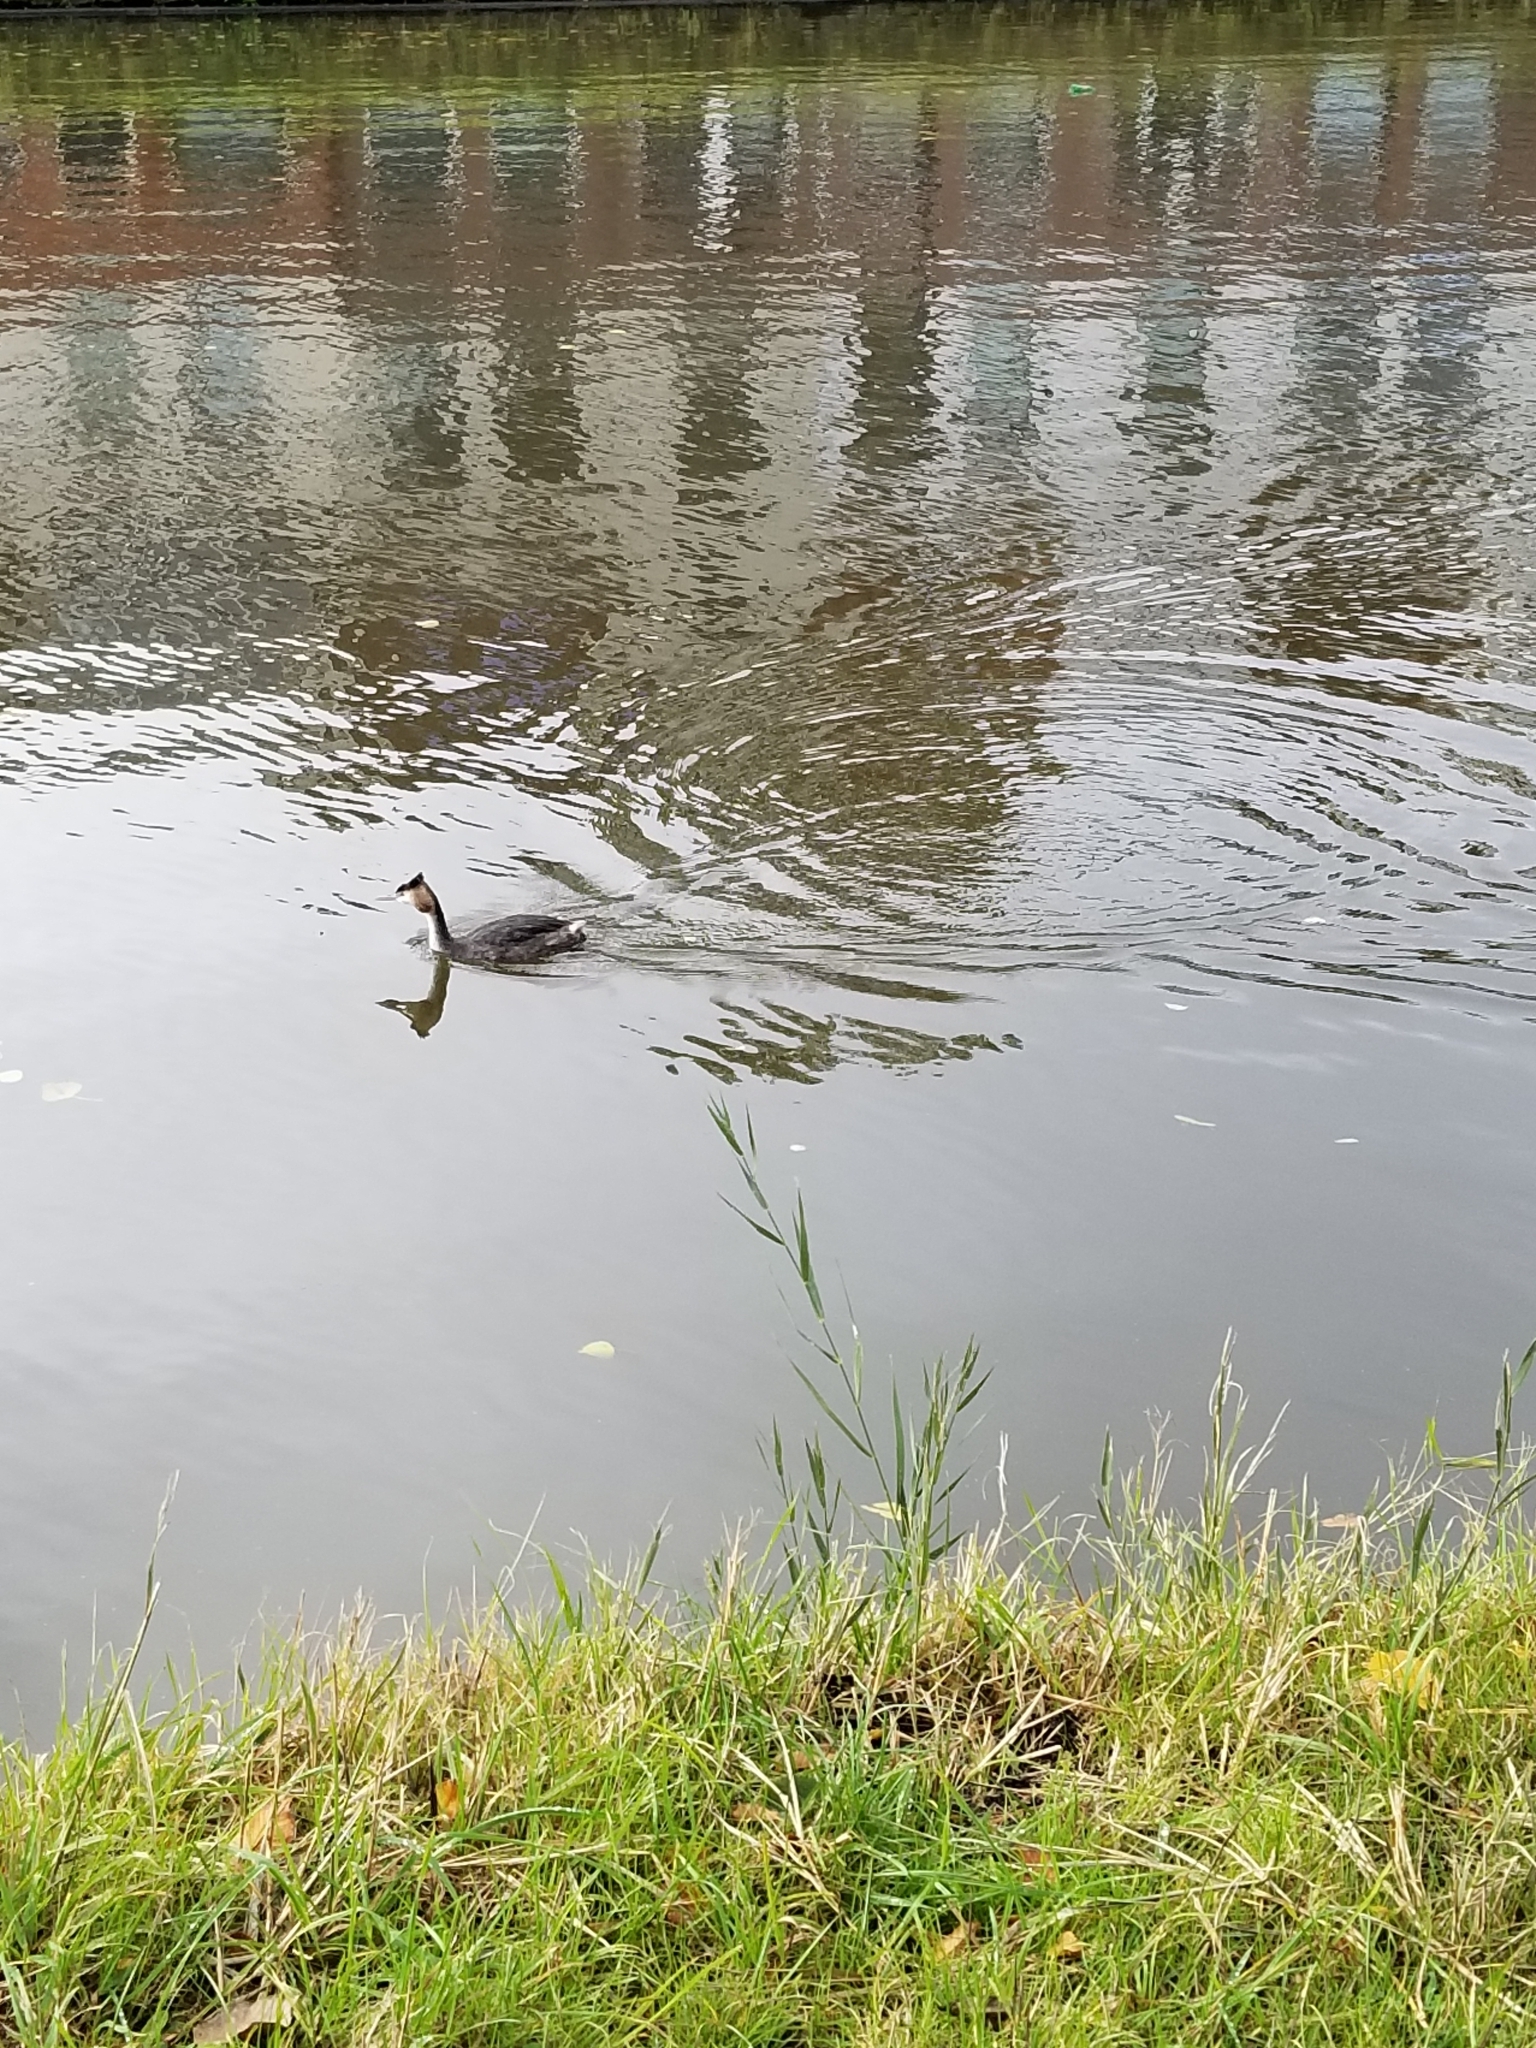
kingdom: Animalia
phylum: Chordata
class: Aves
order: Podicipediformes
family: Podicipedidae
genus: Podiceps
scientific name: Podiceps cristatus
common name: Great crested grebe
